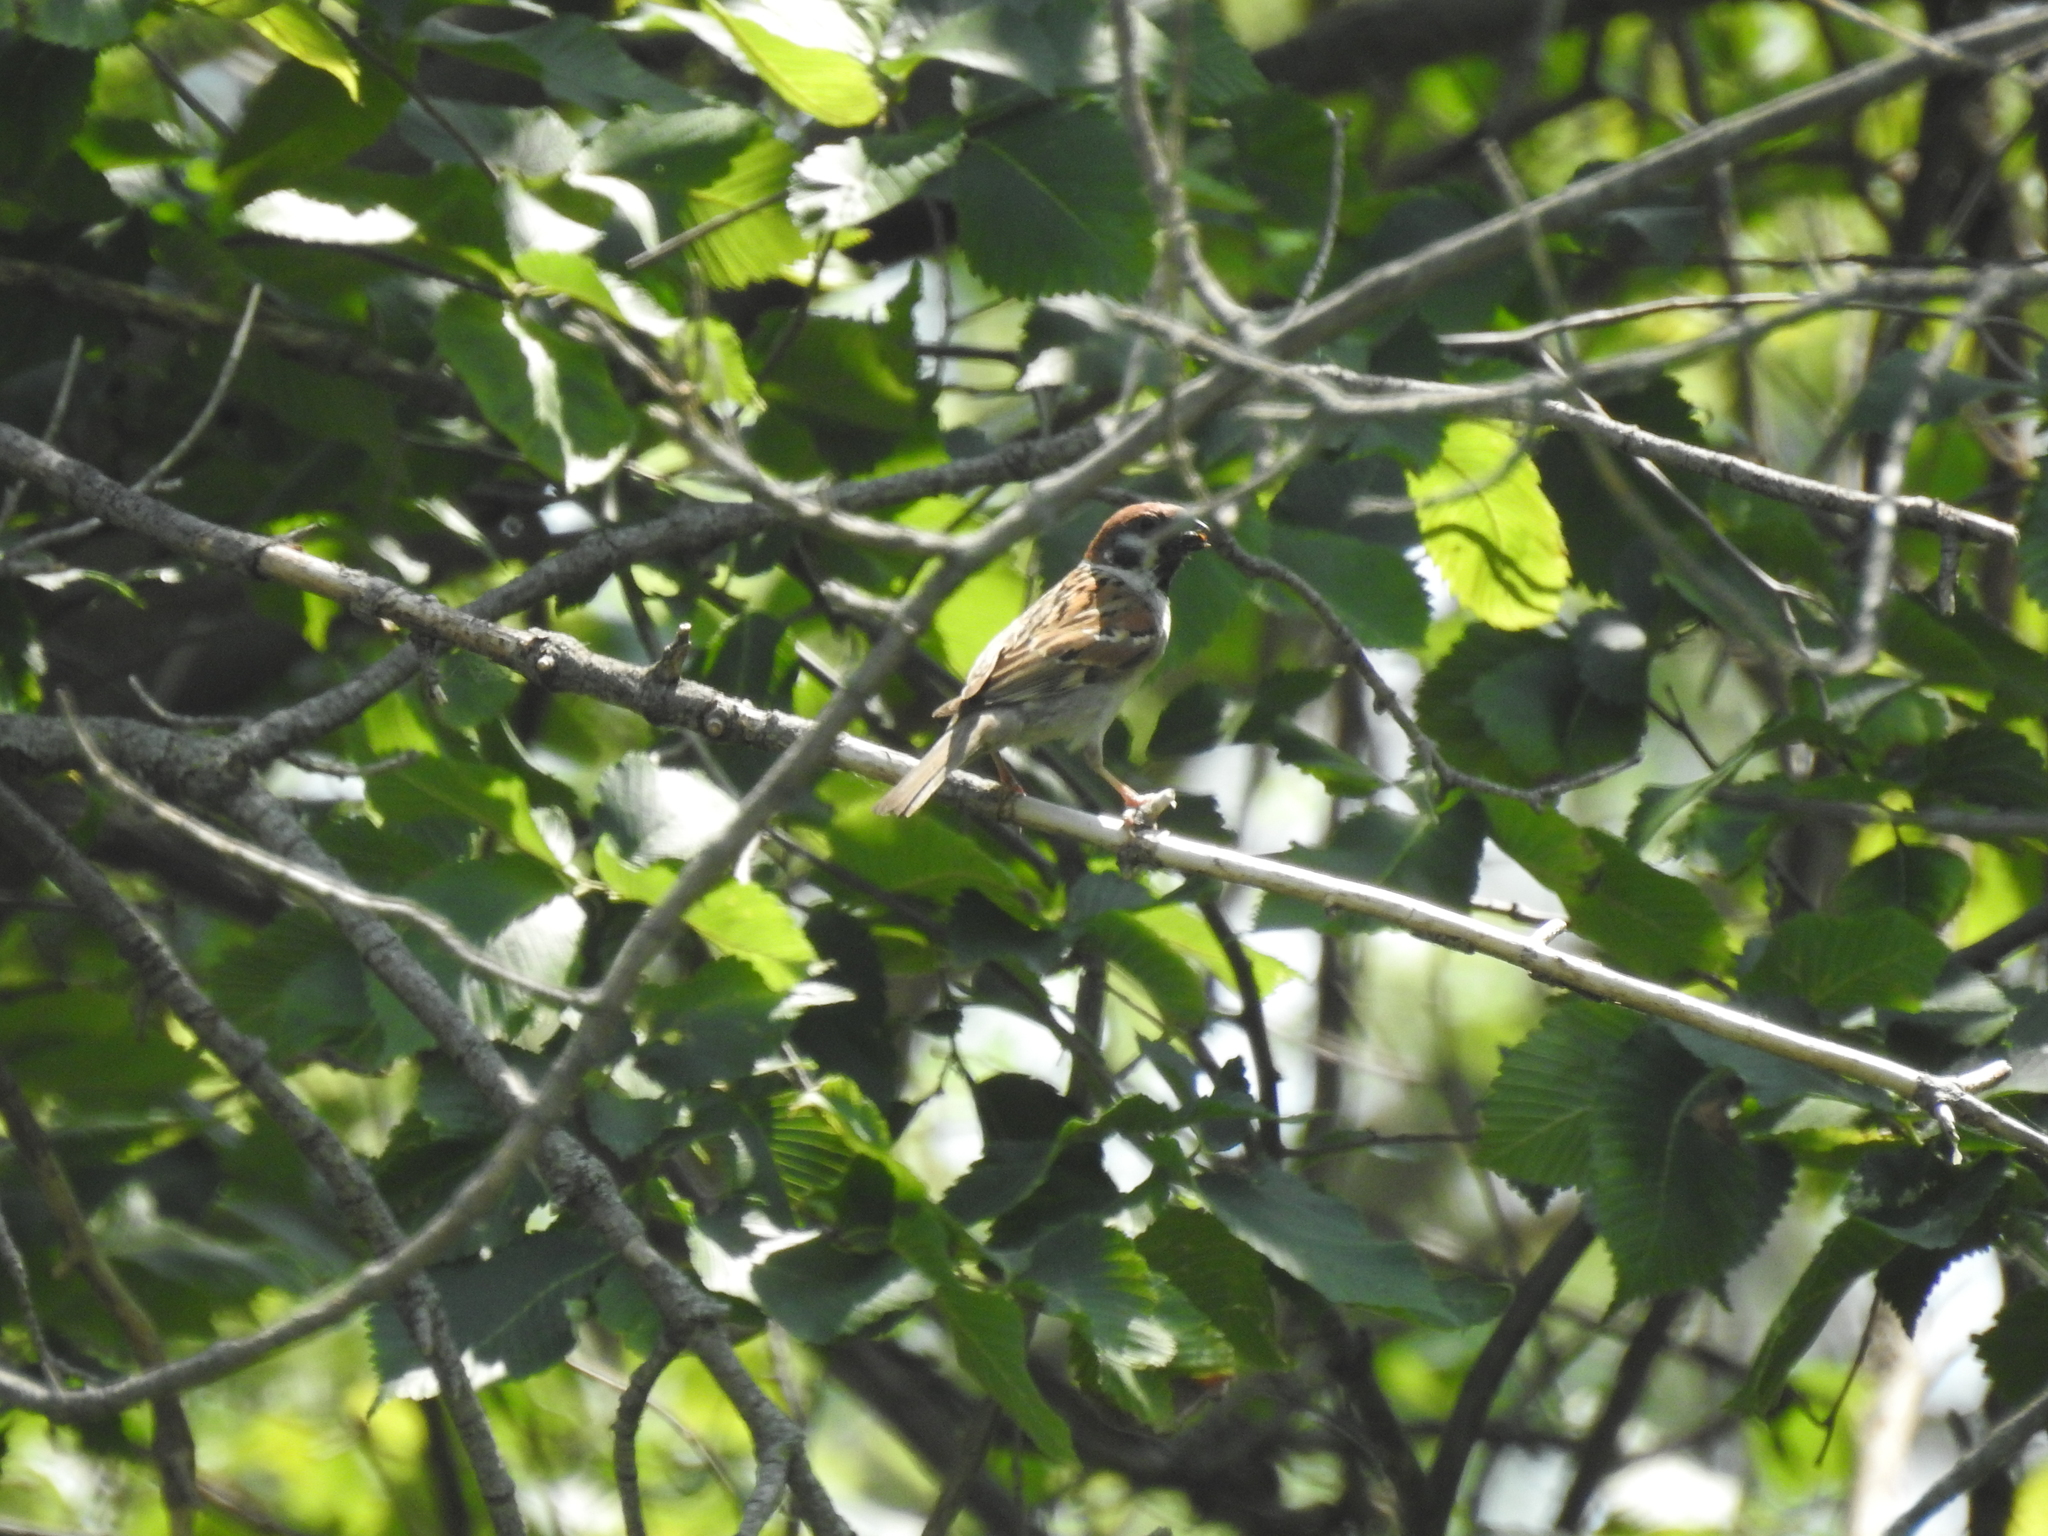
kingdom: Animalia
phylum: Chordata
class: Aves
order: Passeriformes
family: Passeridae
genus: Passer
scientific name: Passer montanus
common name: Eurasian tree sparrow
